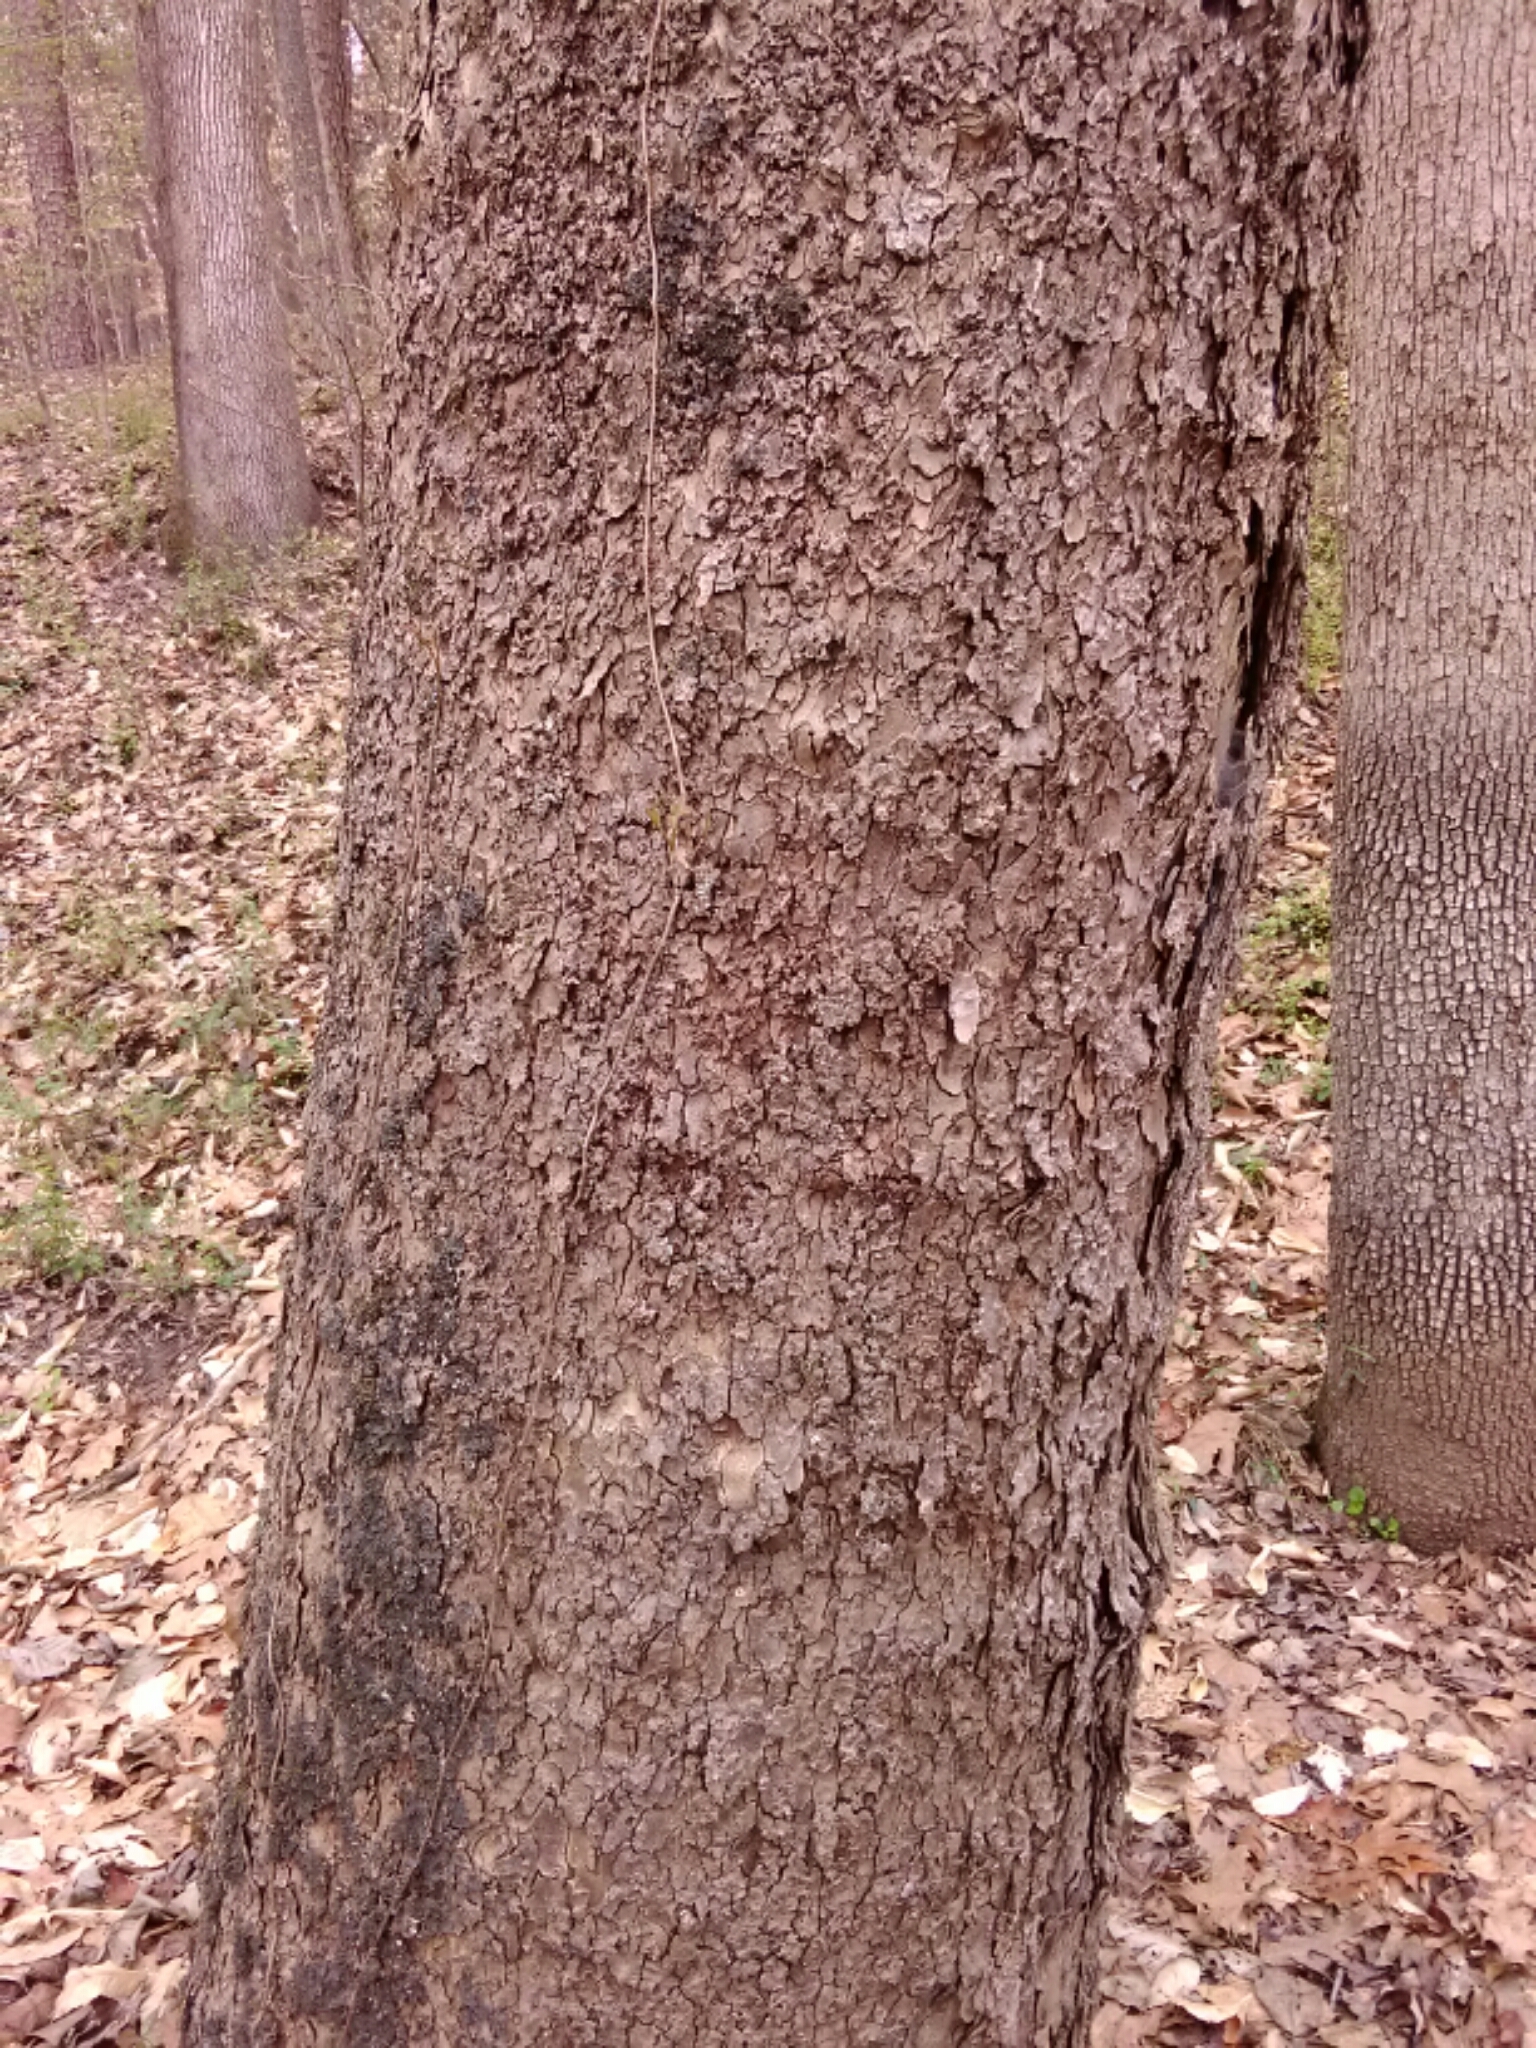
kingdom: Plantae
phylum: Tracheophyta
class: Magnoliopsida
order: Proteales
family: Platanaceae
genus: Platanus
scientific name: Platanus occidentalis
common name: American sycamore
